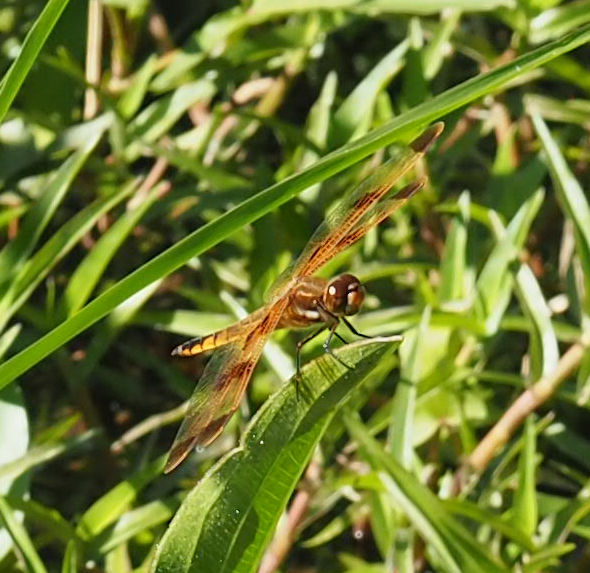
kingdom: Animalia
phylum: Arthropoda
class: Insecta
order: Odonata
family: Libellulidae
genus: Libellula
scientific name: Libellula semifasciata
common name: Painted skimmer
